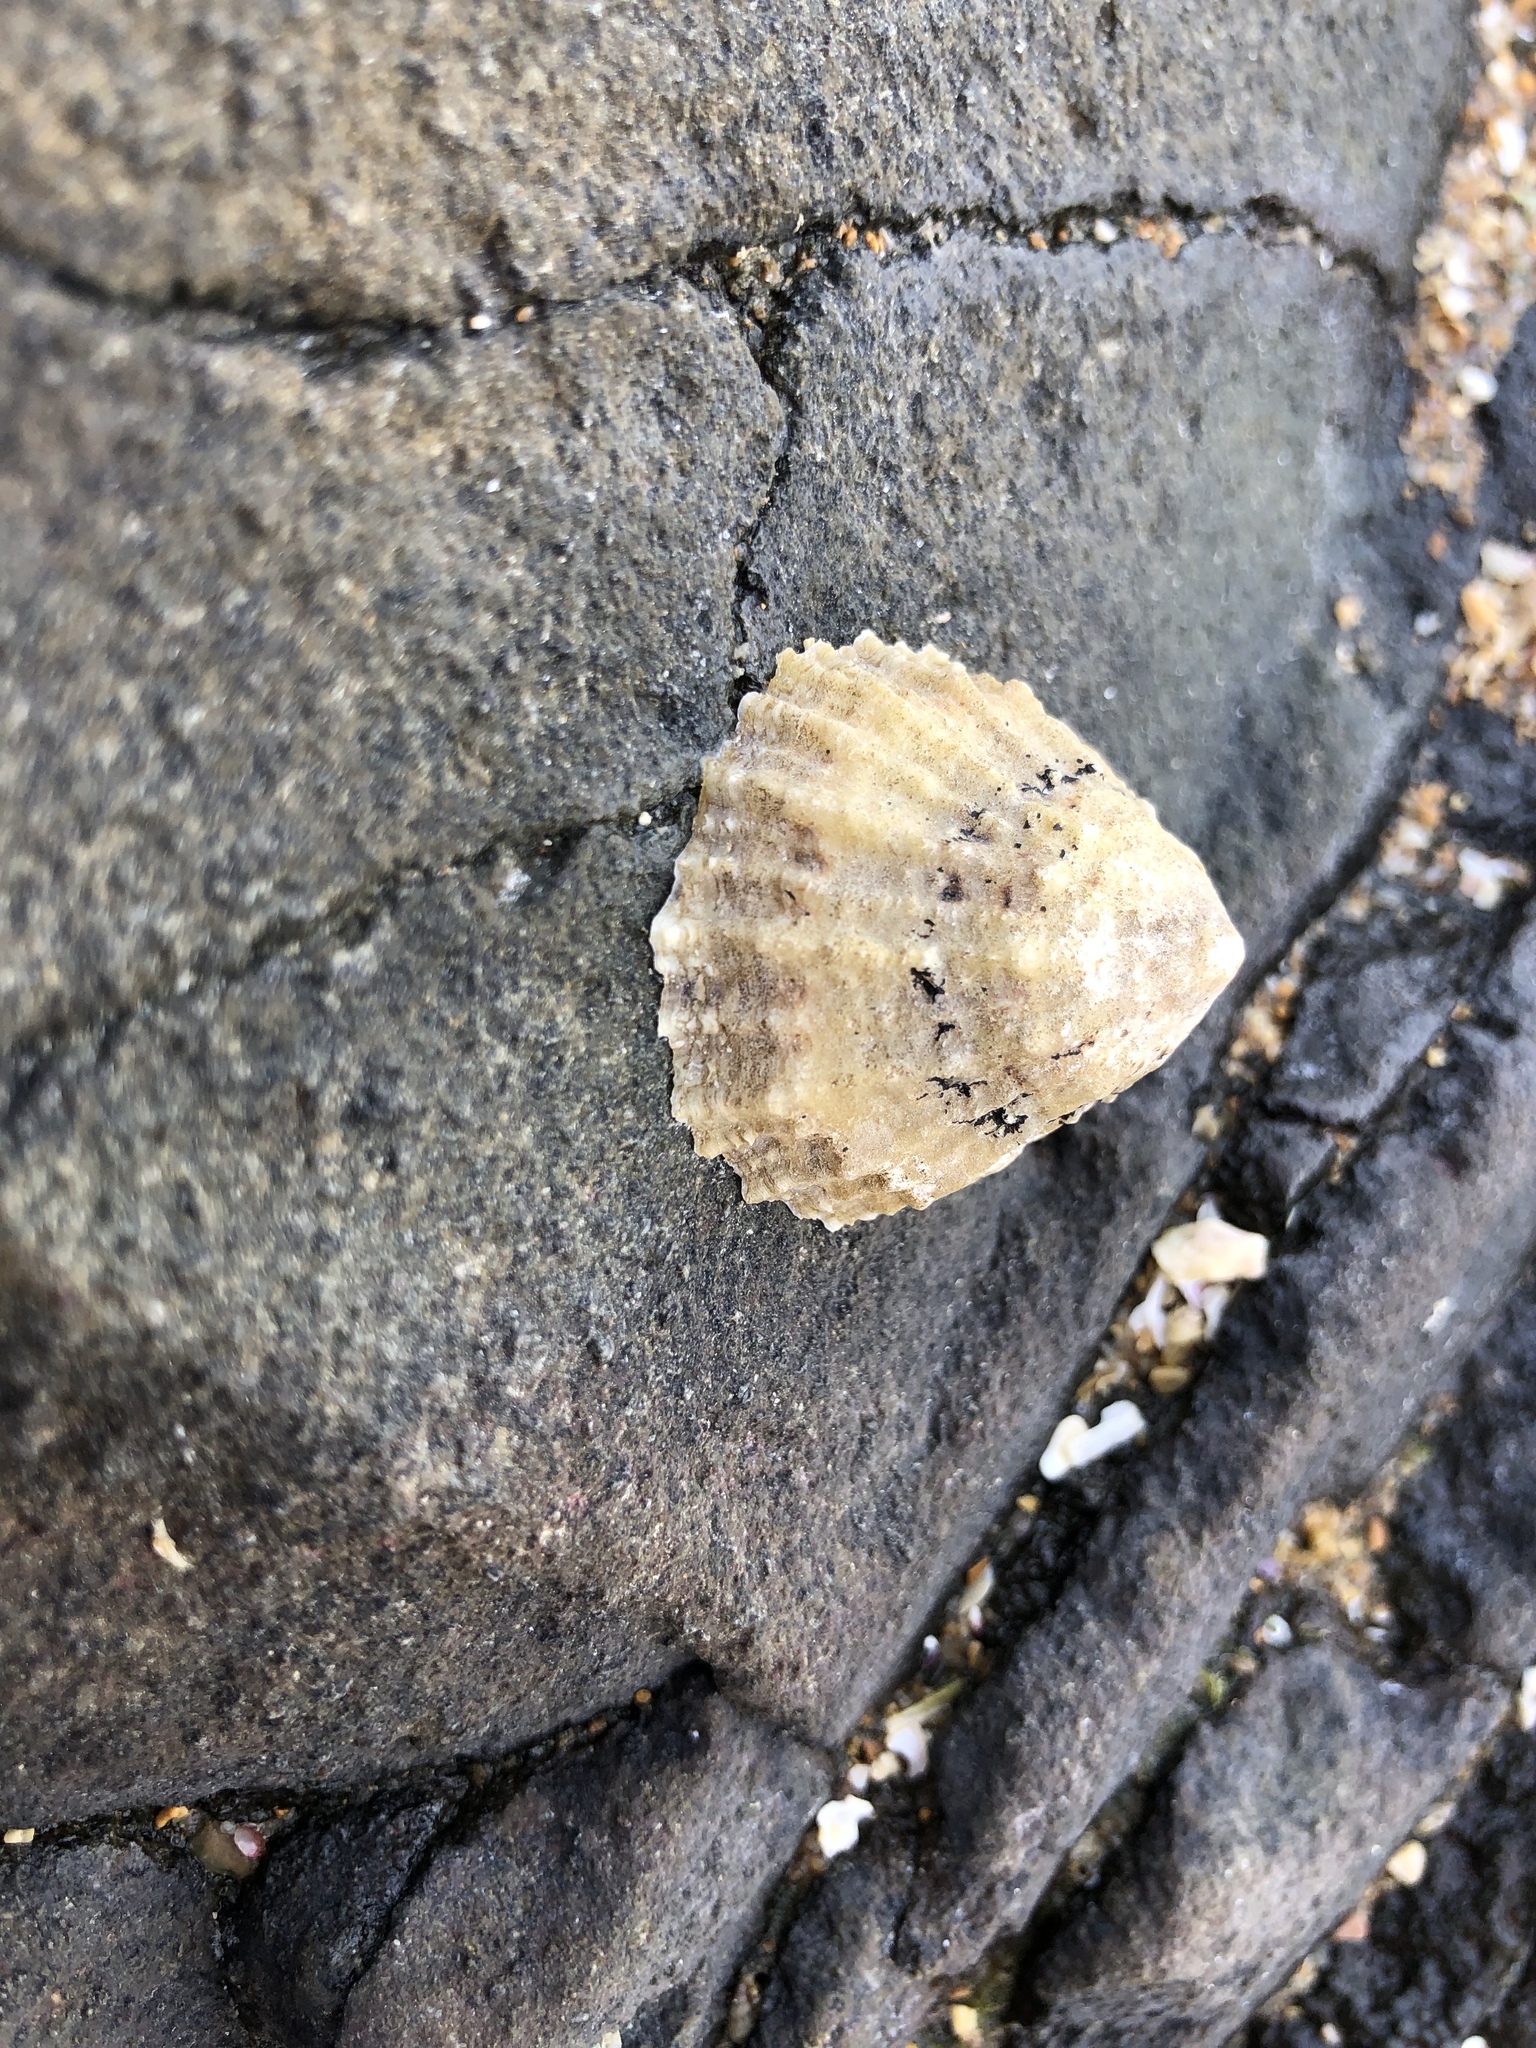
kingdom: Animalia
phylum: Mollusca
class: Gastropoda
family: Patellidae
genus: Patella
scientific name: Patella vulgata
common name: Common limpet
